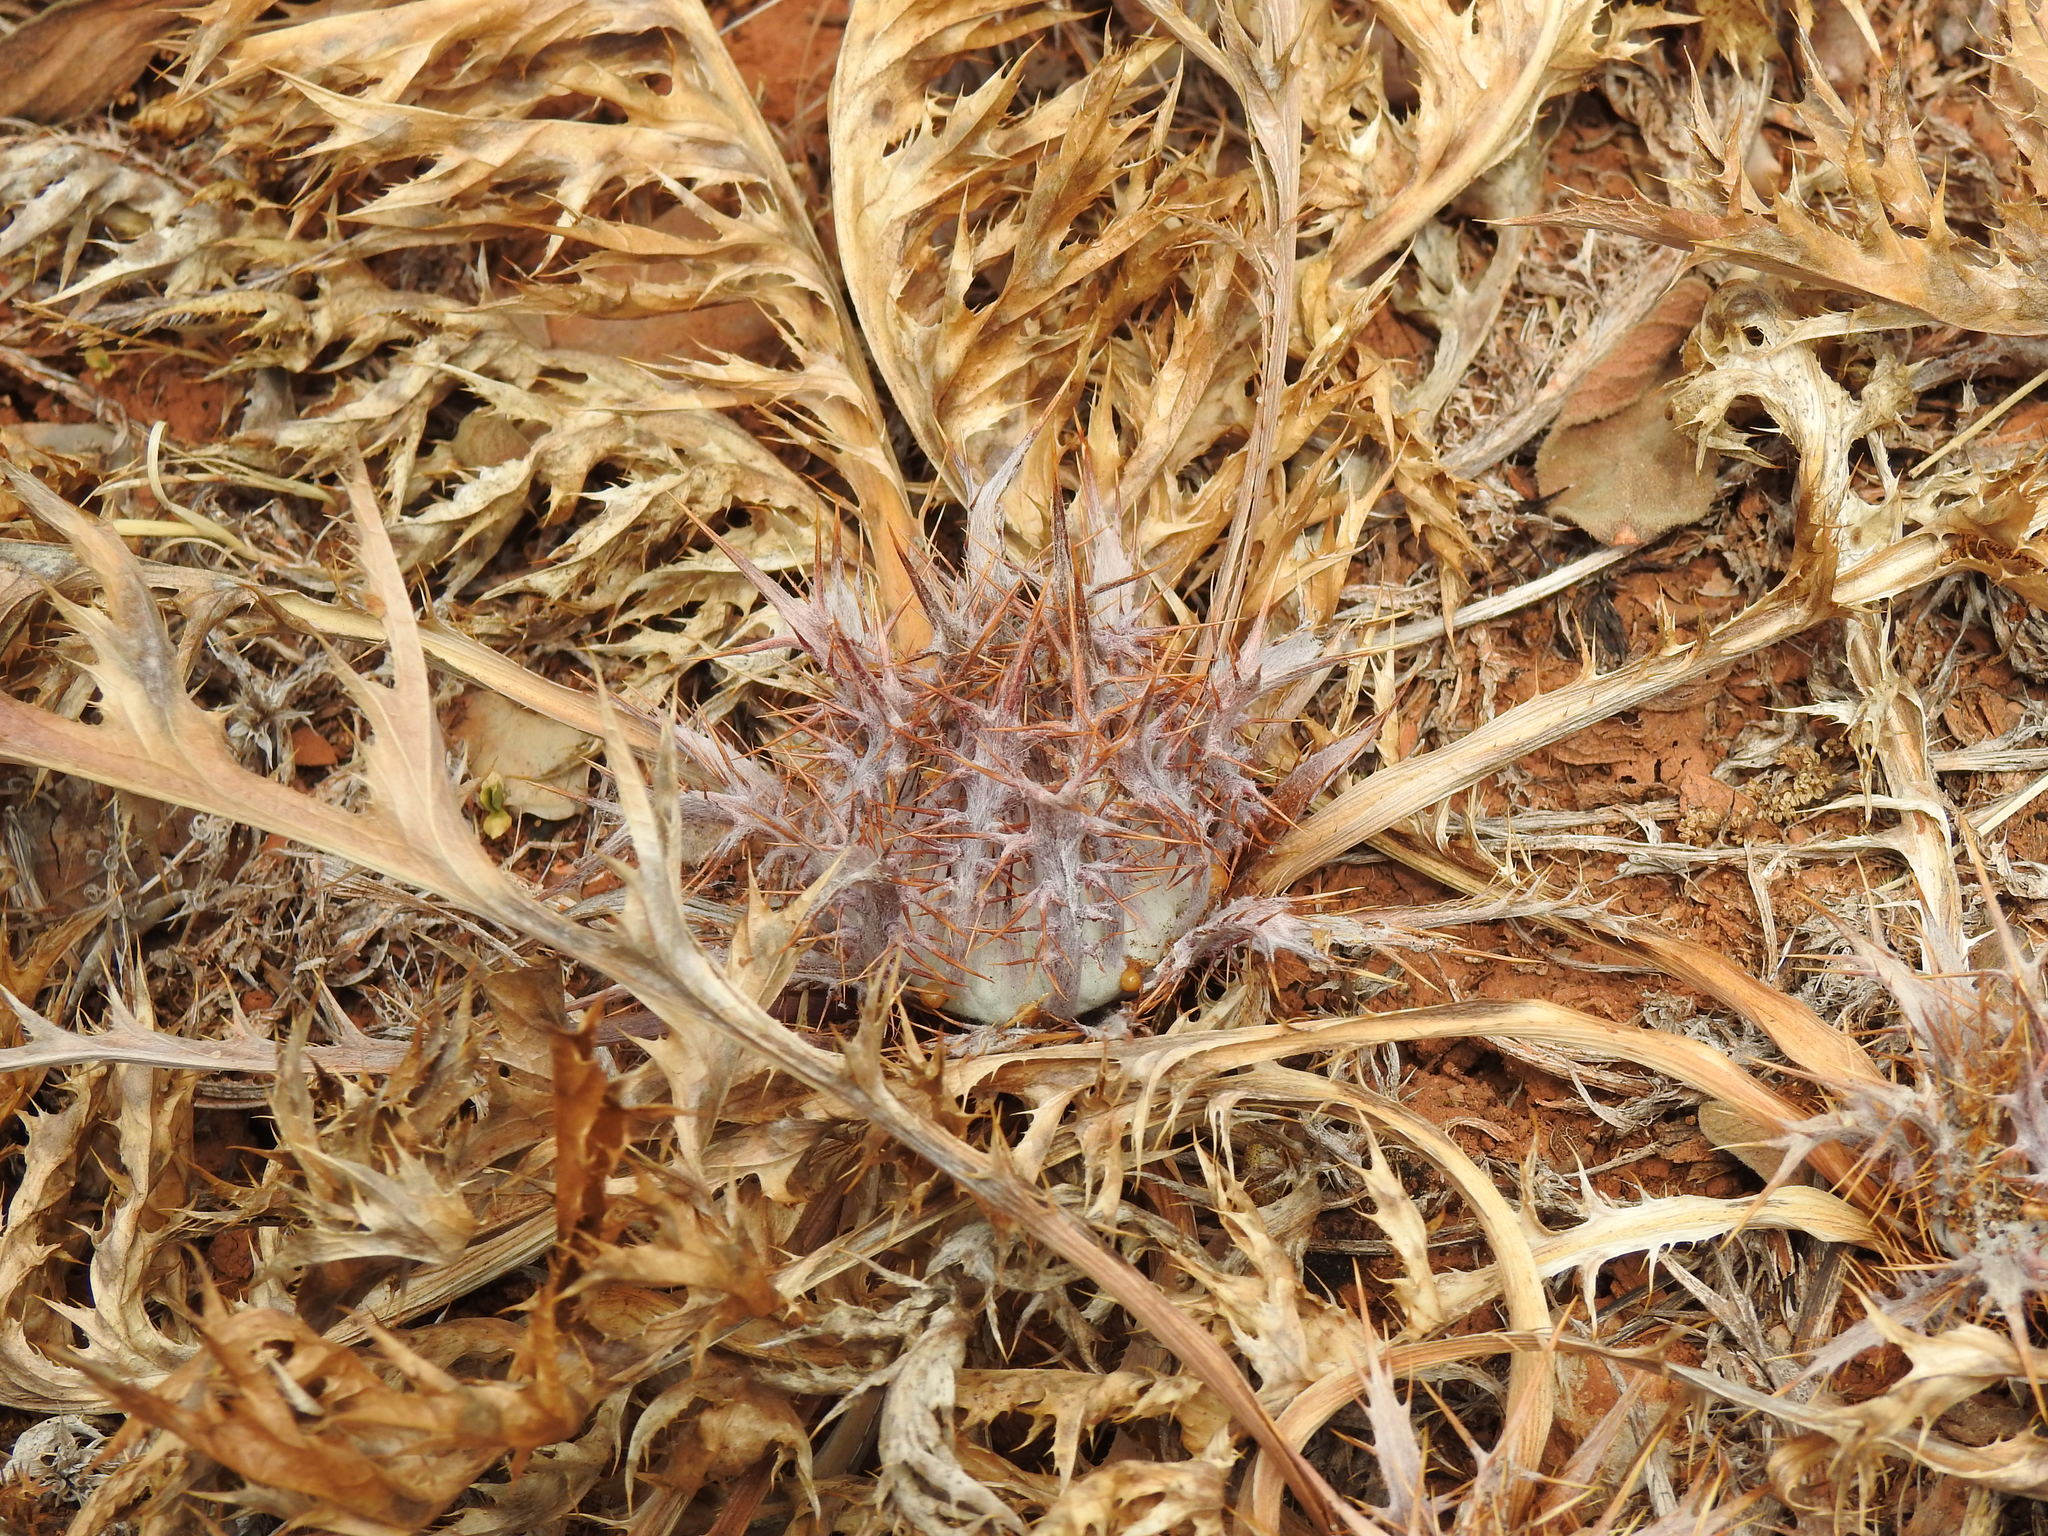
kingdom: Plantae
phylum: Tracheophyta
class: Magnoliopsida
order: Asterales
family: Asteraceae
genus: Chamaeleon
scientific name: Chamaeleon gummifer
